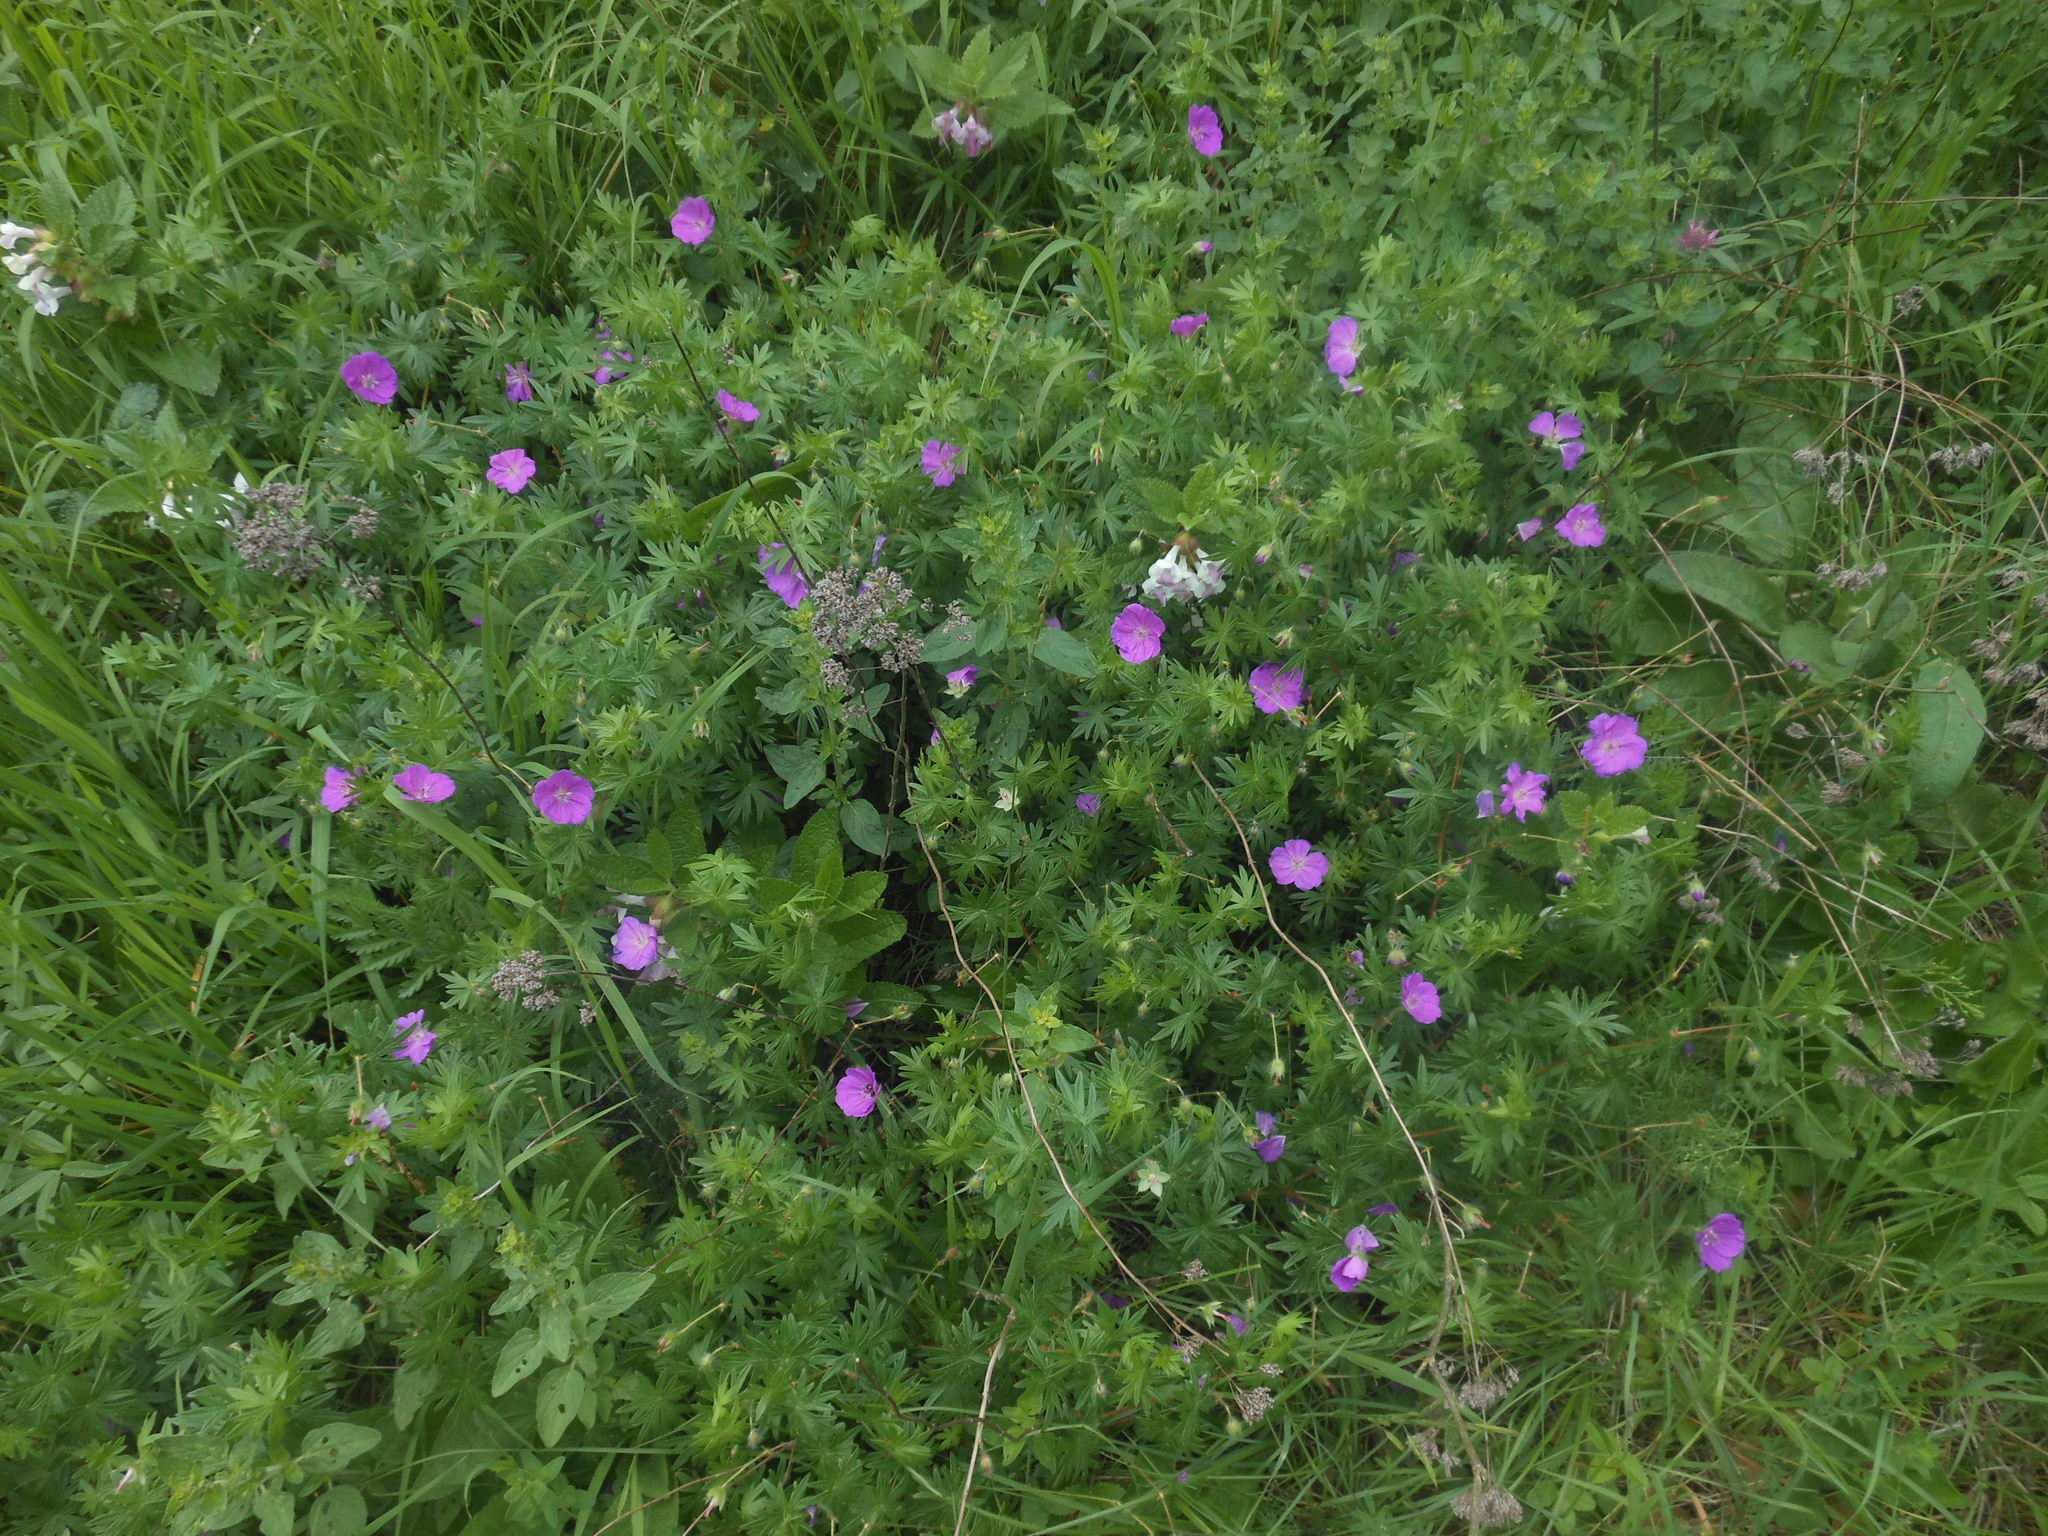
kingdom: Plantae
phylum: Tracheophyta
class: Magnoliopsida
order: Geraniales
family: Geraniaceae
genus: Geranium
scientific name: Geranium sanguineum
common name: Bloody crane's-bill
